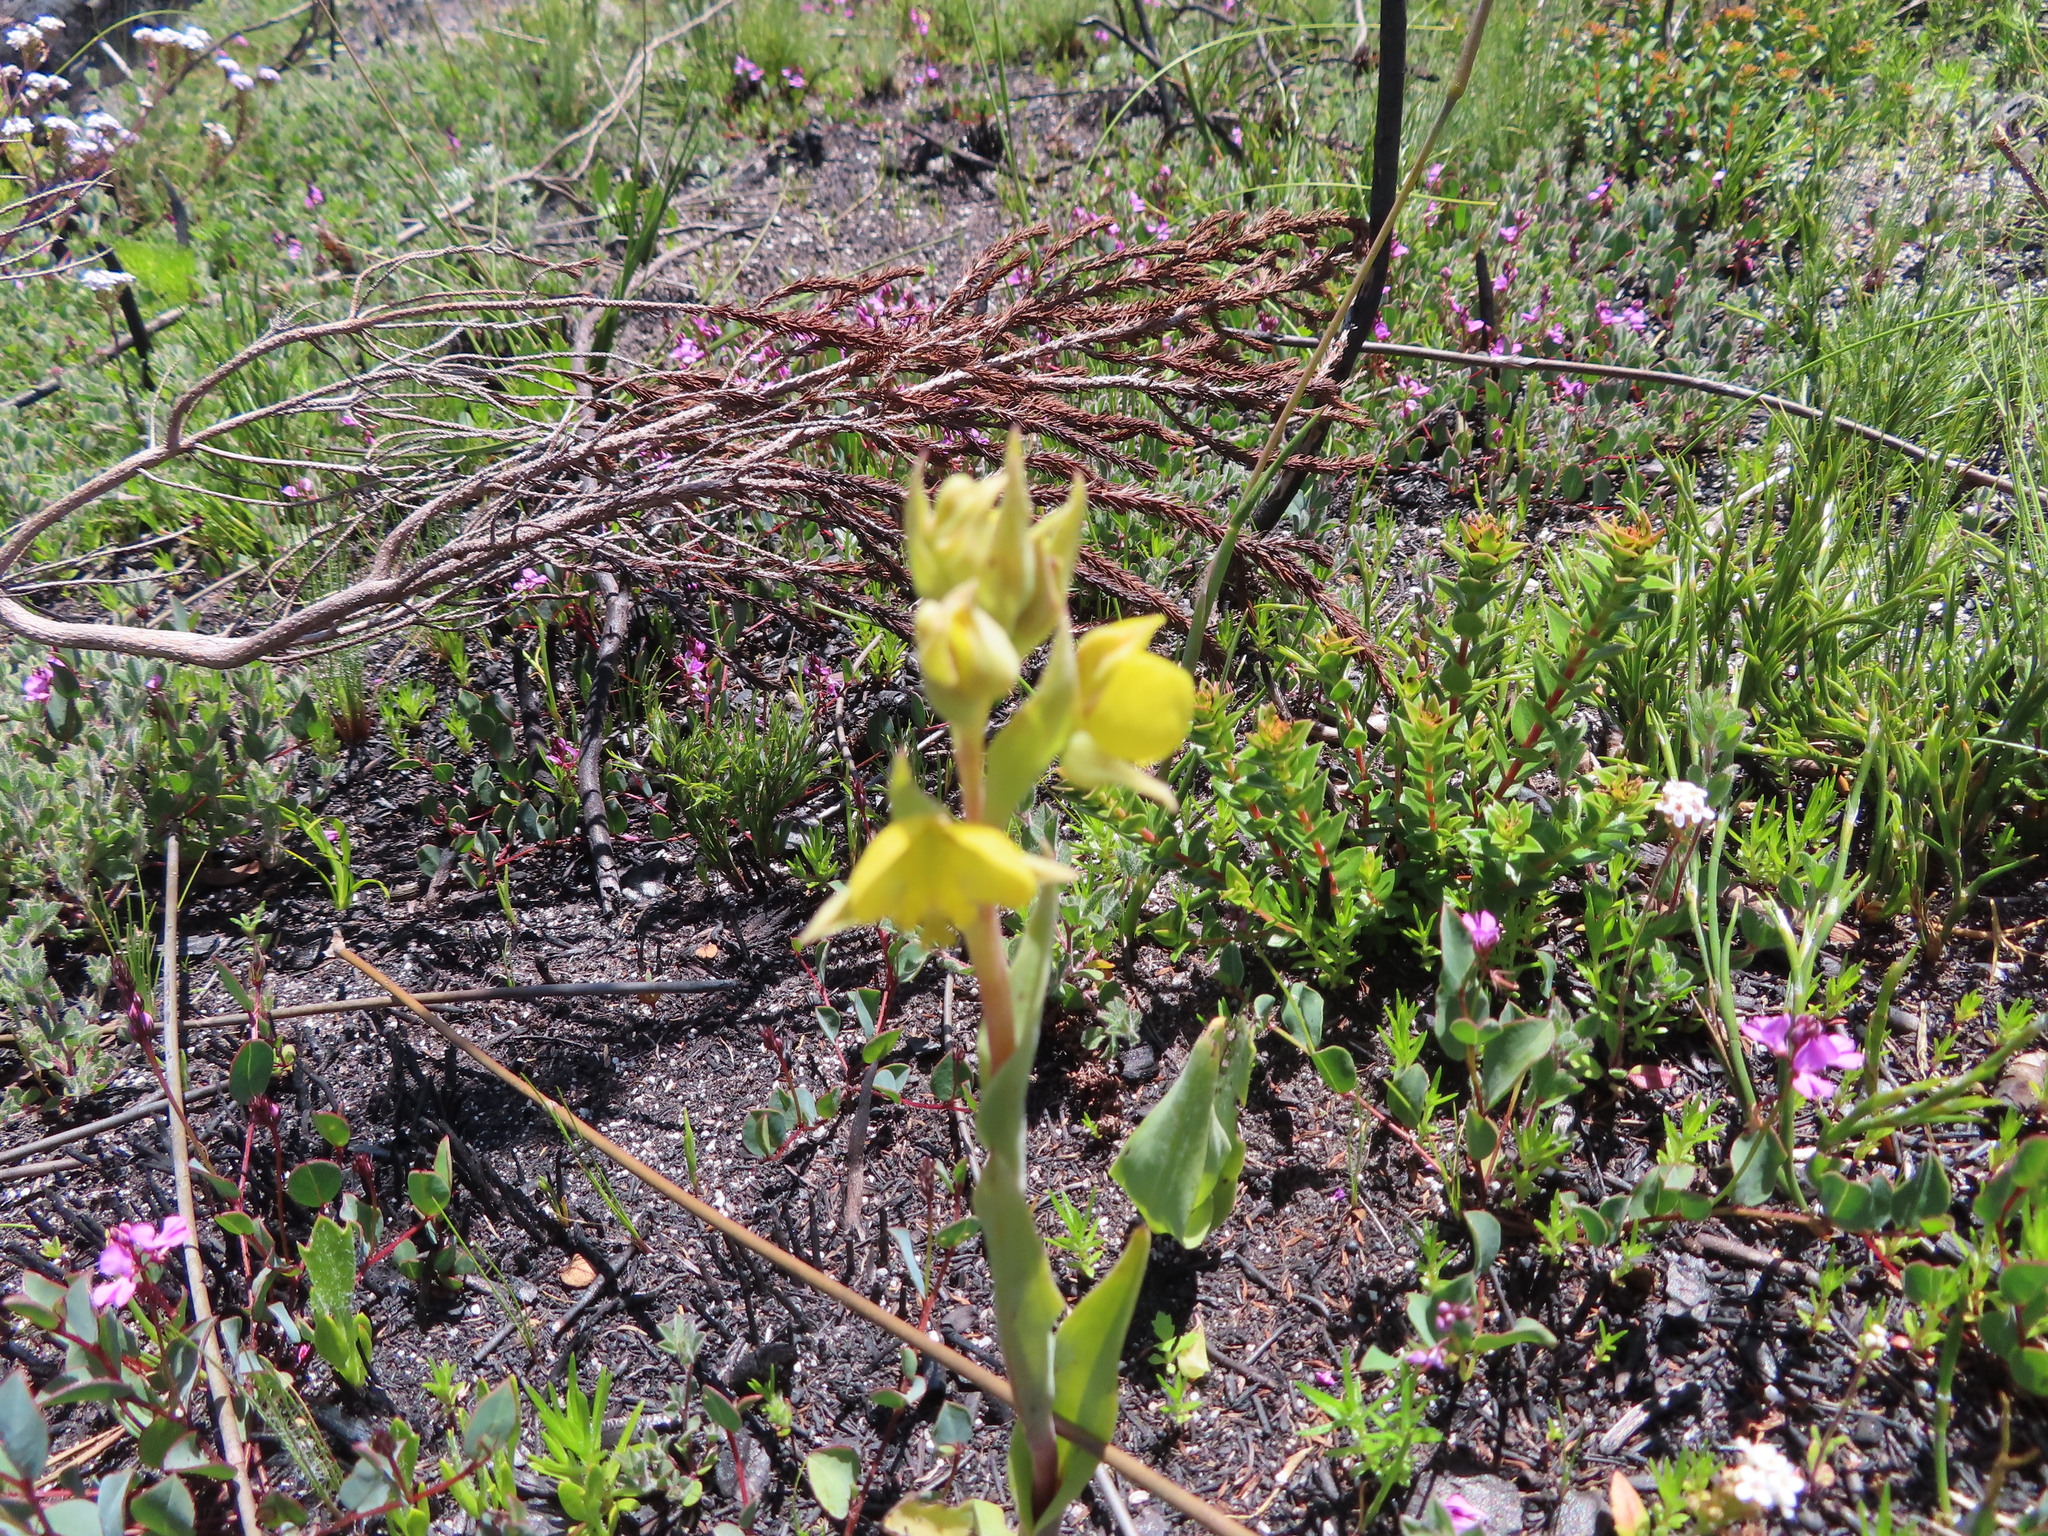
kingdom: Plantae
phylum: Tracheophyta
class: Liliopsida
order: Asparagales
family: Orchidaceae
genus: Pterygodium
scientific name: Pterygodium acutifolium
